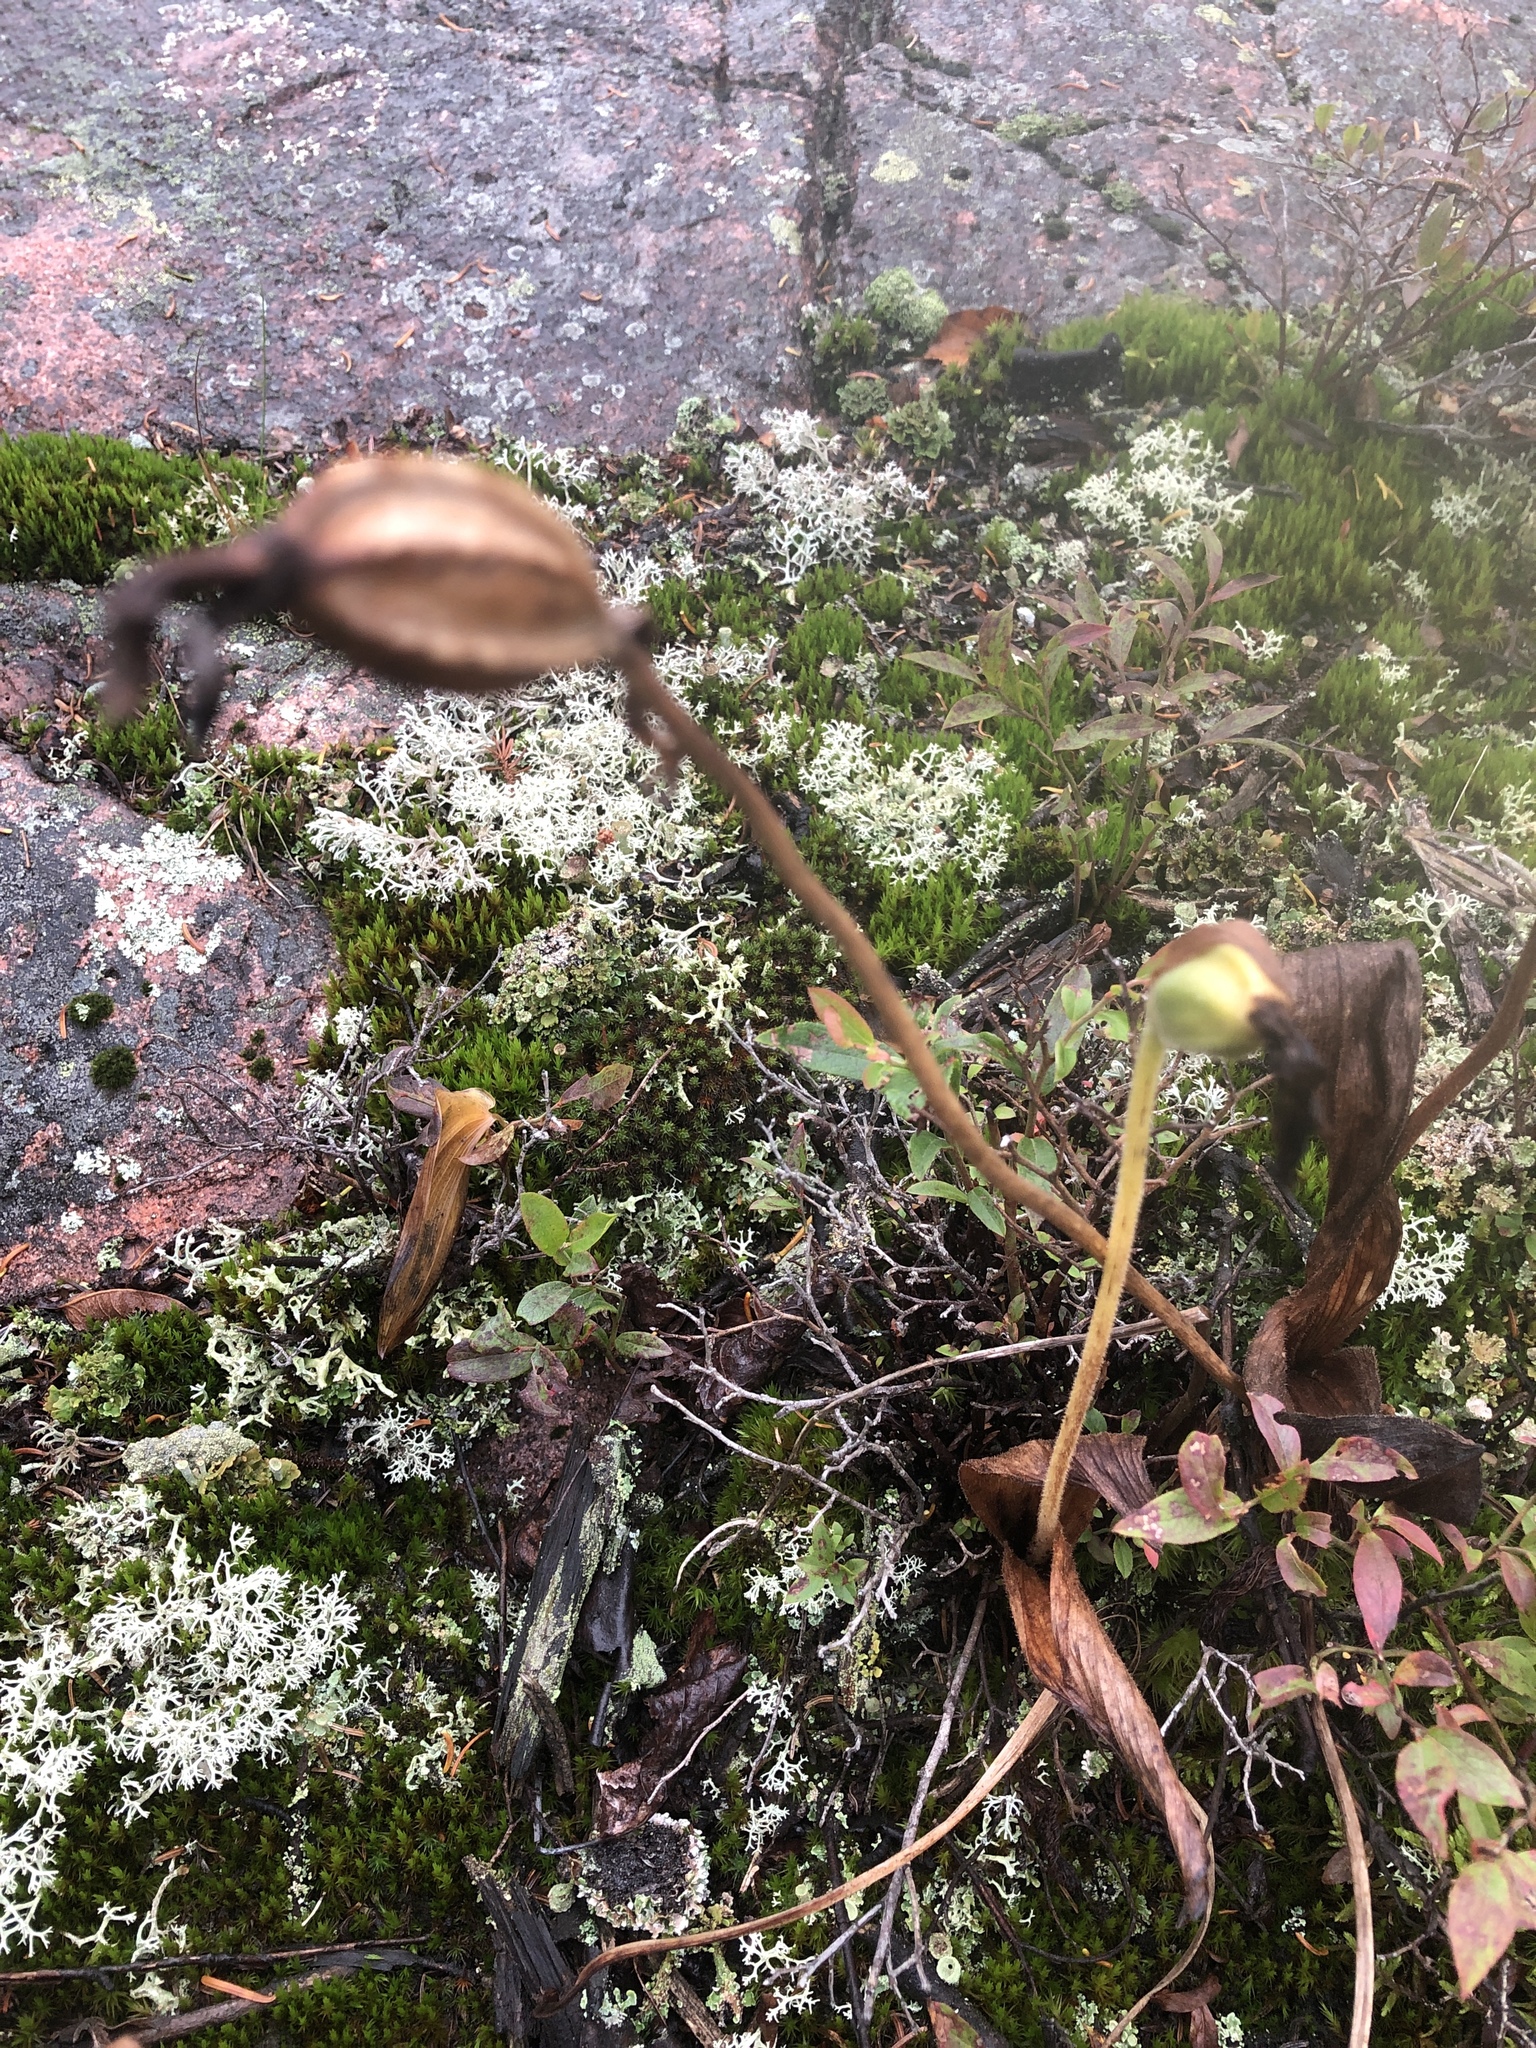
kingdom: Plantae
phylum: Tracheophyta
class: Liliopsida
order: Asparagales
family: Orchidaceae
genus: Cypripedium
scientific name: Cypripedium acaule
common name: Pink lady's-slipper
